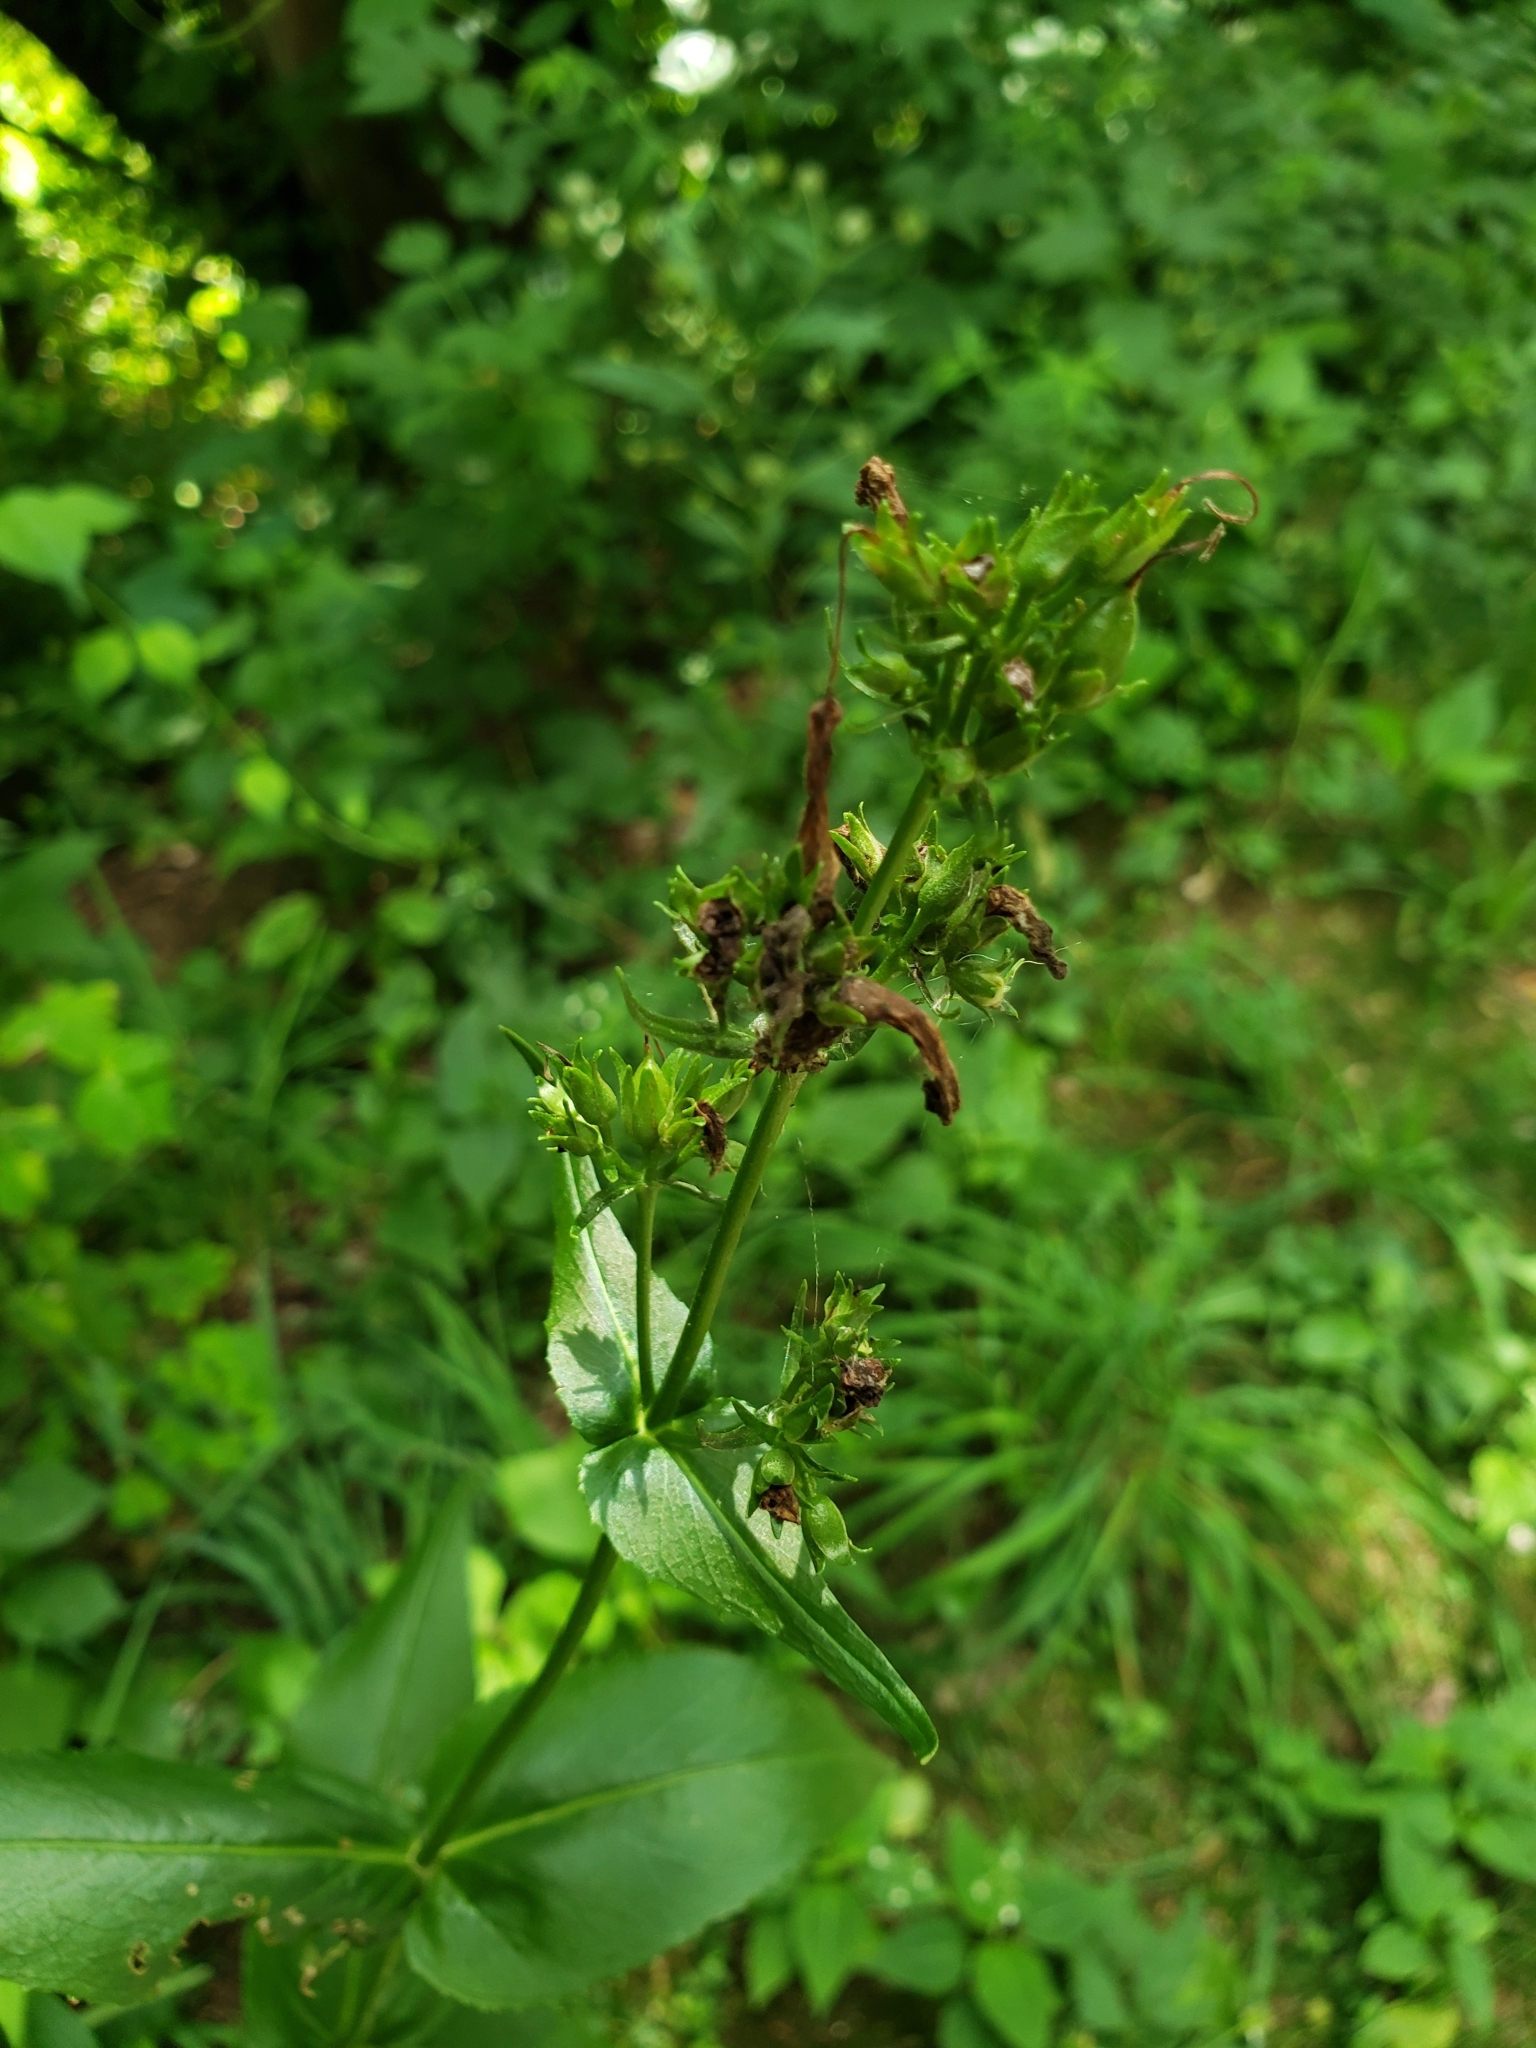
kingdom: Plantae
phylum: Tracheophyta
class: Magnoliopsida
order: Lamiales
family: Plantaginaceae
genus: Penstemon
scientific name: Penstemon digitalis
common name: Foxglove beardtongue
